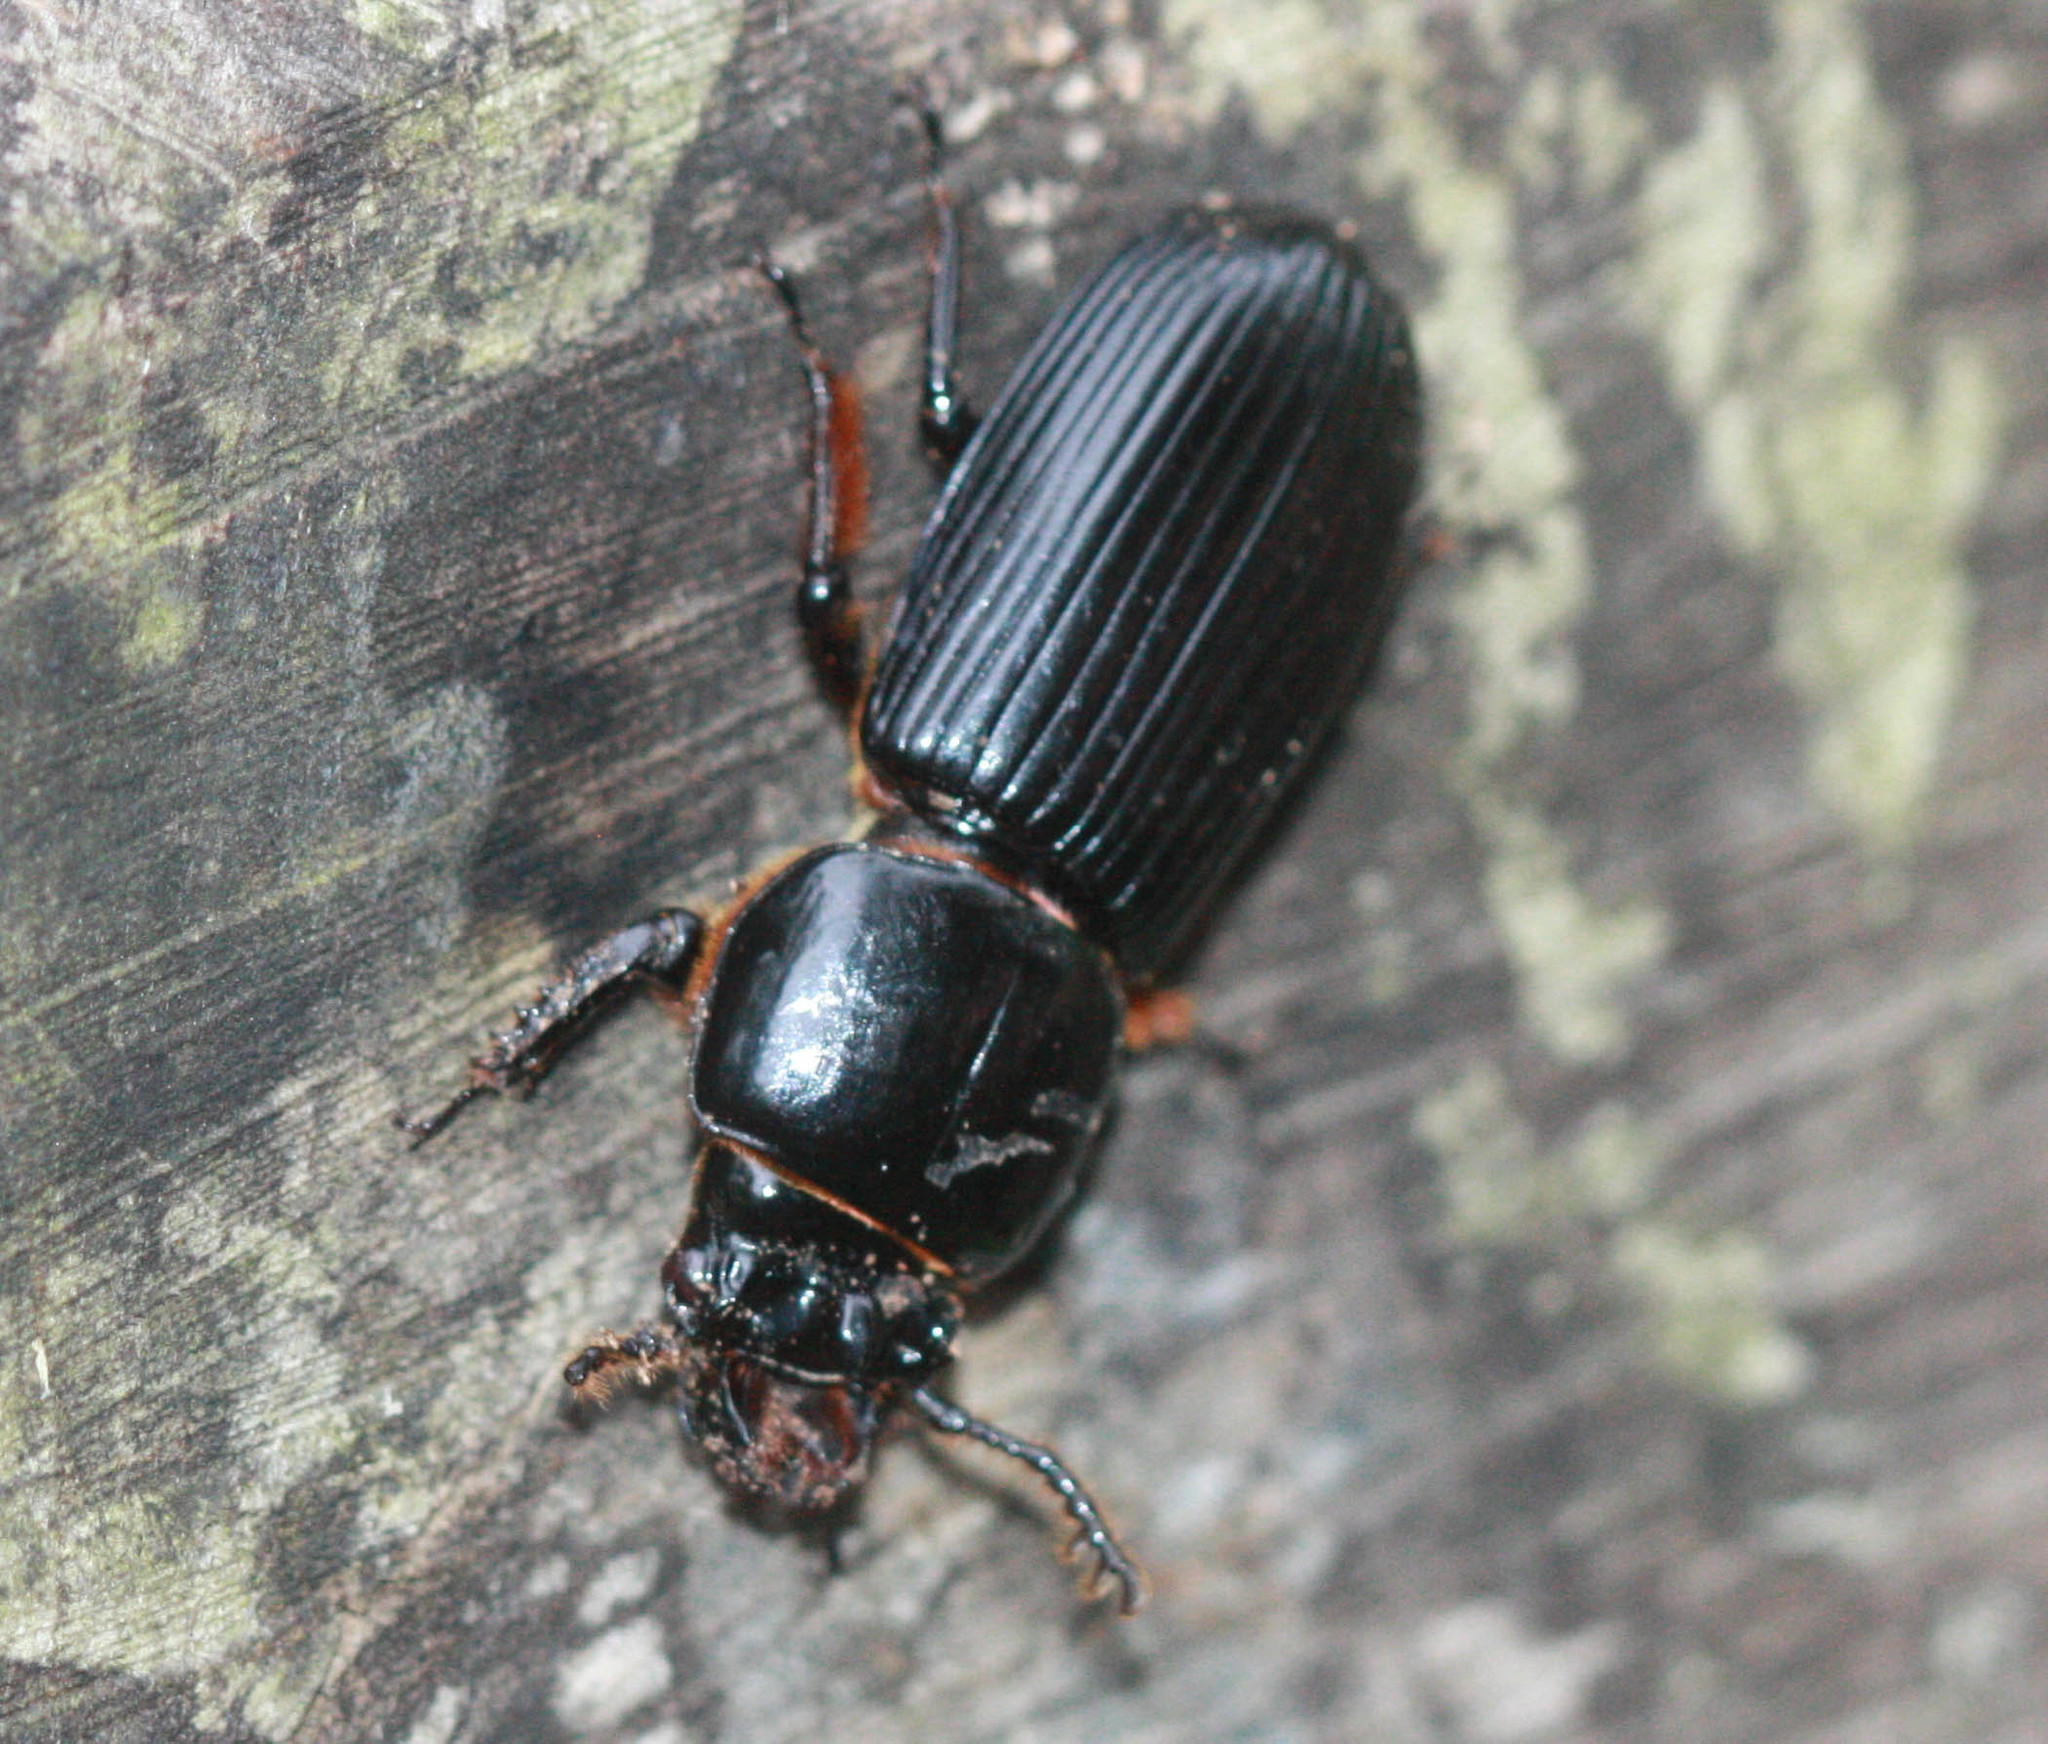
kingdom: Animalia
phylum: Arthropoda
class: Insecta
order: Coleoptera
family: Passalidae
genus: Odontotaenius
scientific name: Odontotaenius disjunctus
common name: Patent leather beetle
